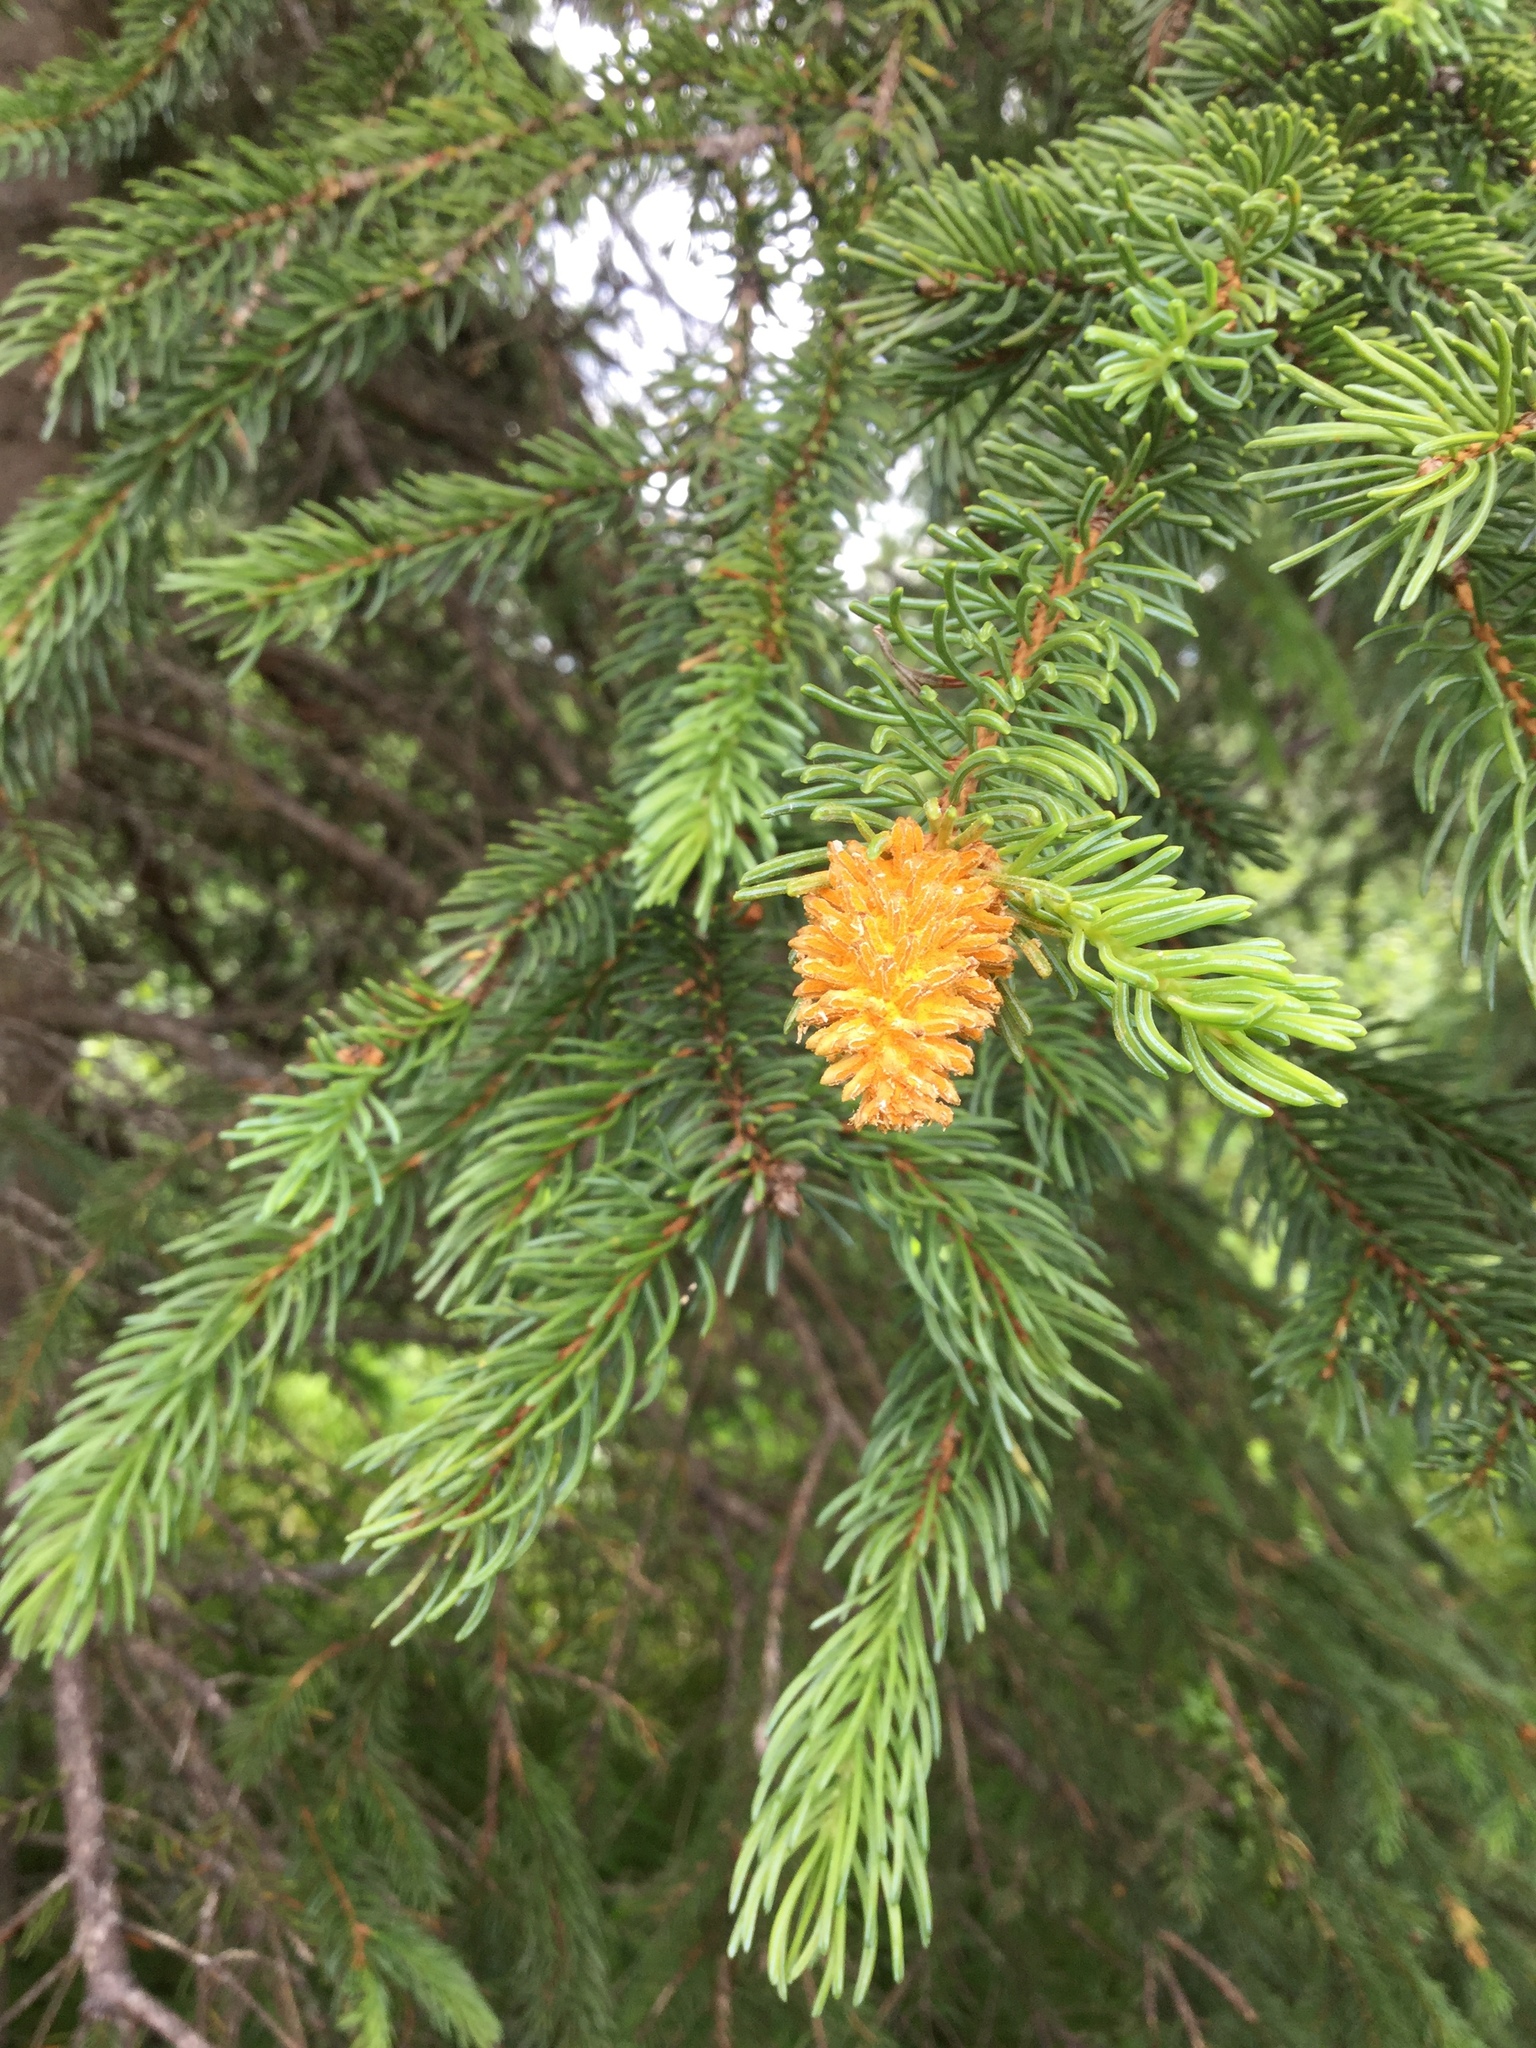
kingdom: Fungi
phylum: Basidiomycota
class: Pucciniomycetes
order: Pucciniales
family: Coleosporiaceae
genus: Chrysomyxa
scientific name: Chrysomyxa woroninii
